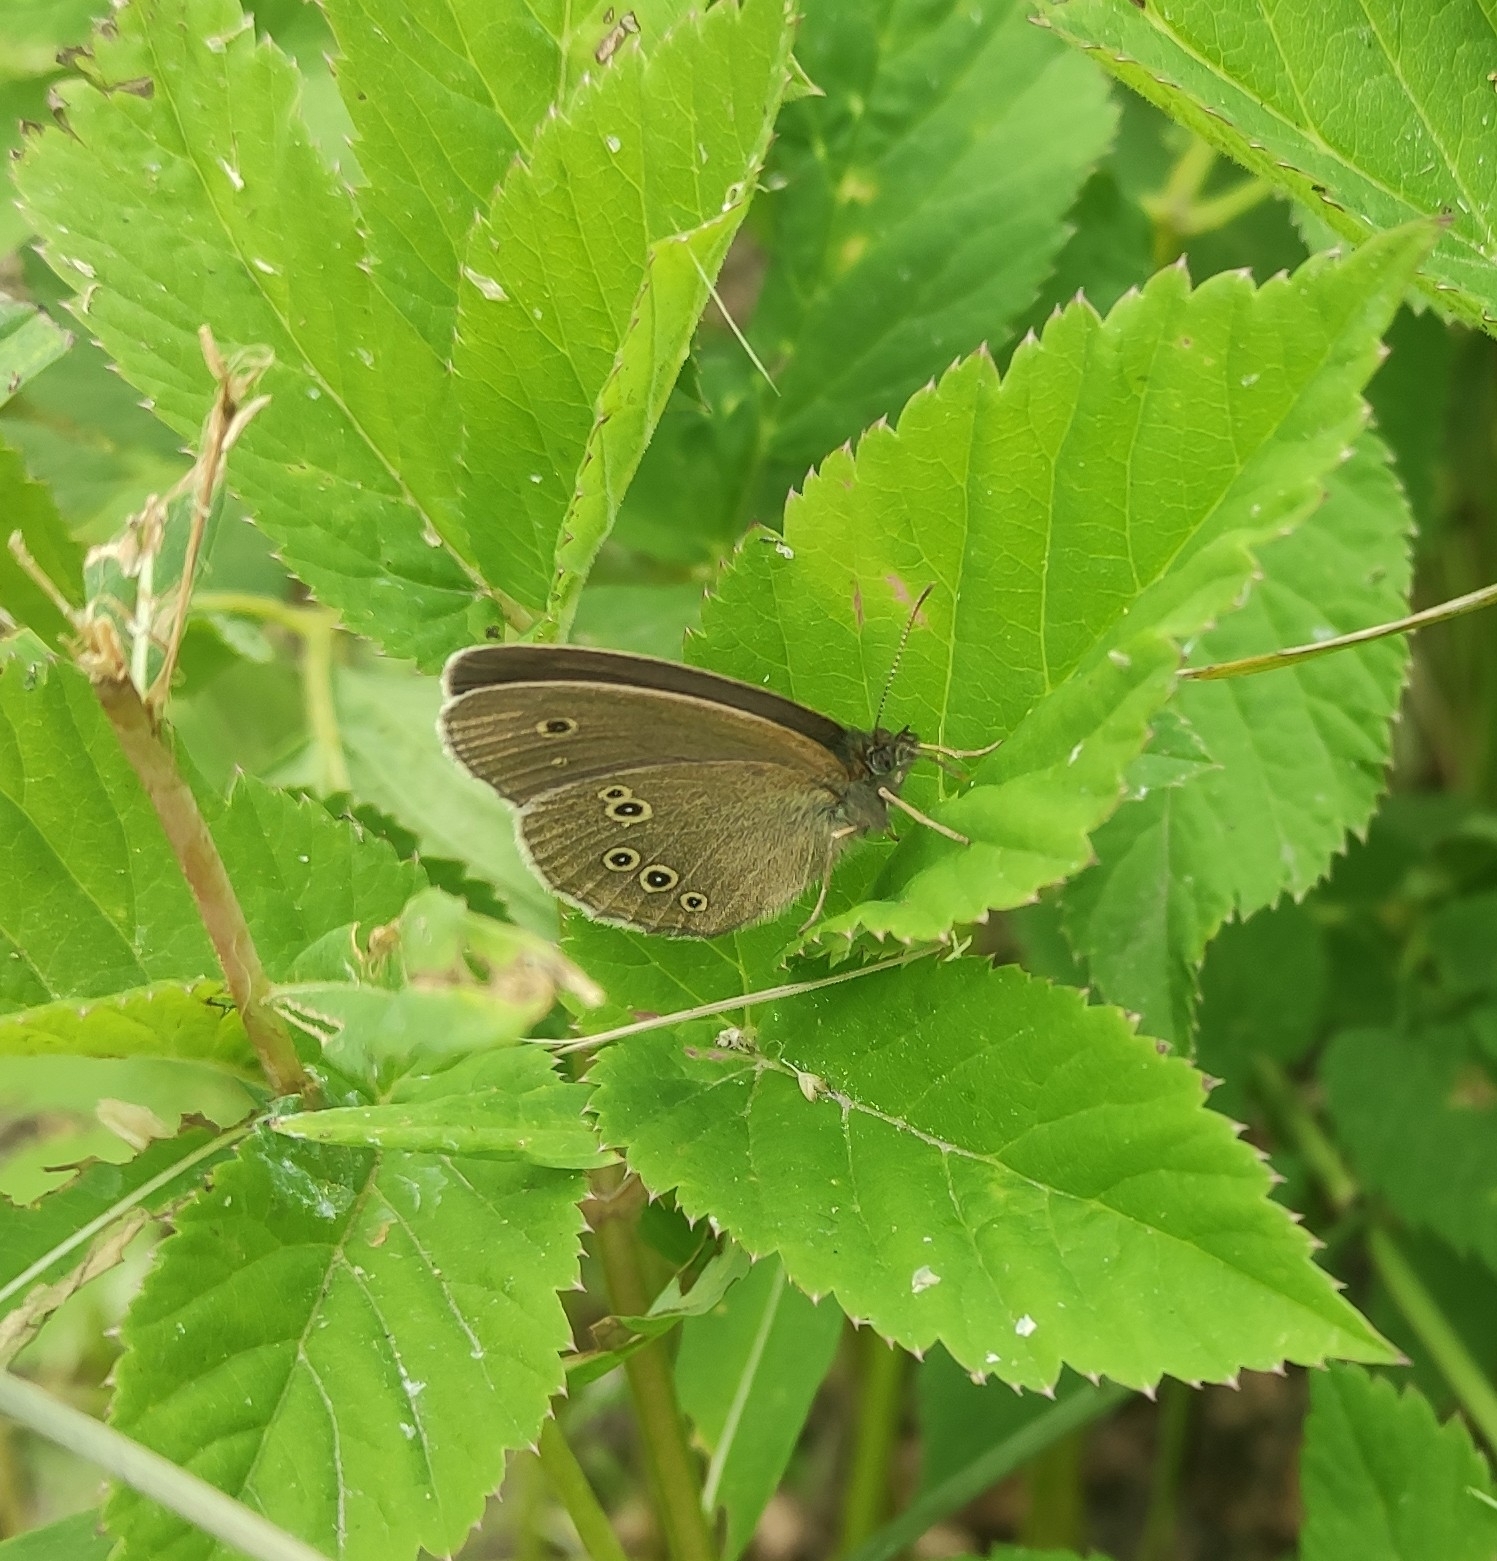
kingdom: Animalia
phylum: Arthropoda
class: Insecta
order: Lepidoptera
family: Nymphalidae
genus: Aphantopus
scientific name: Aphantopus hyperantus
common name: Ringlet
